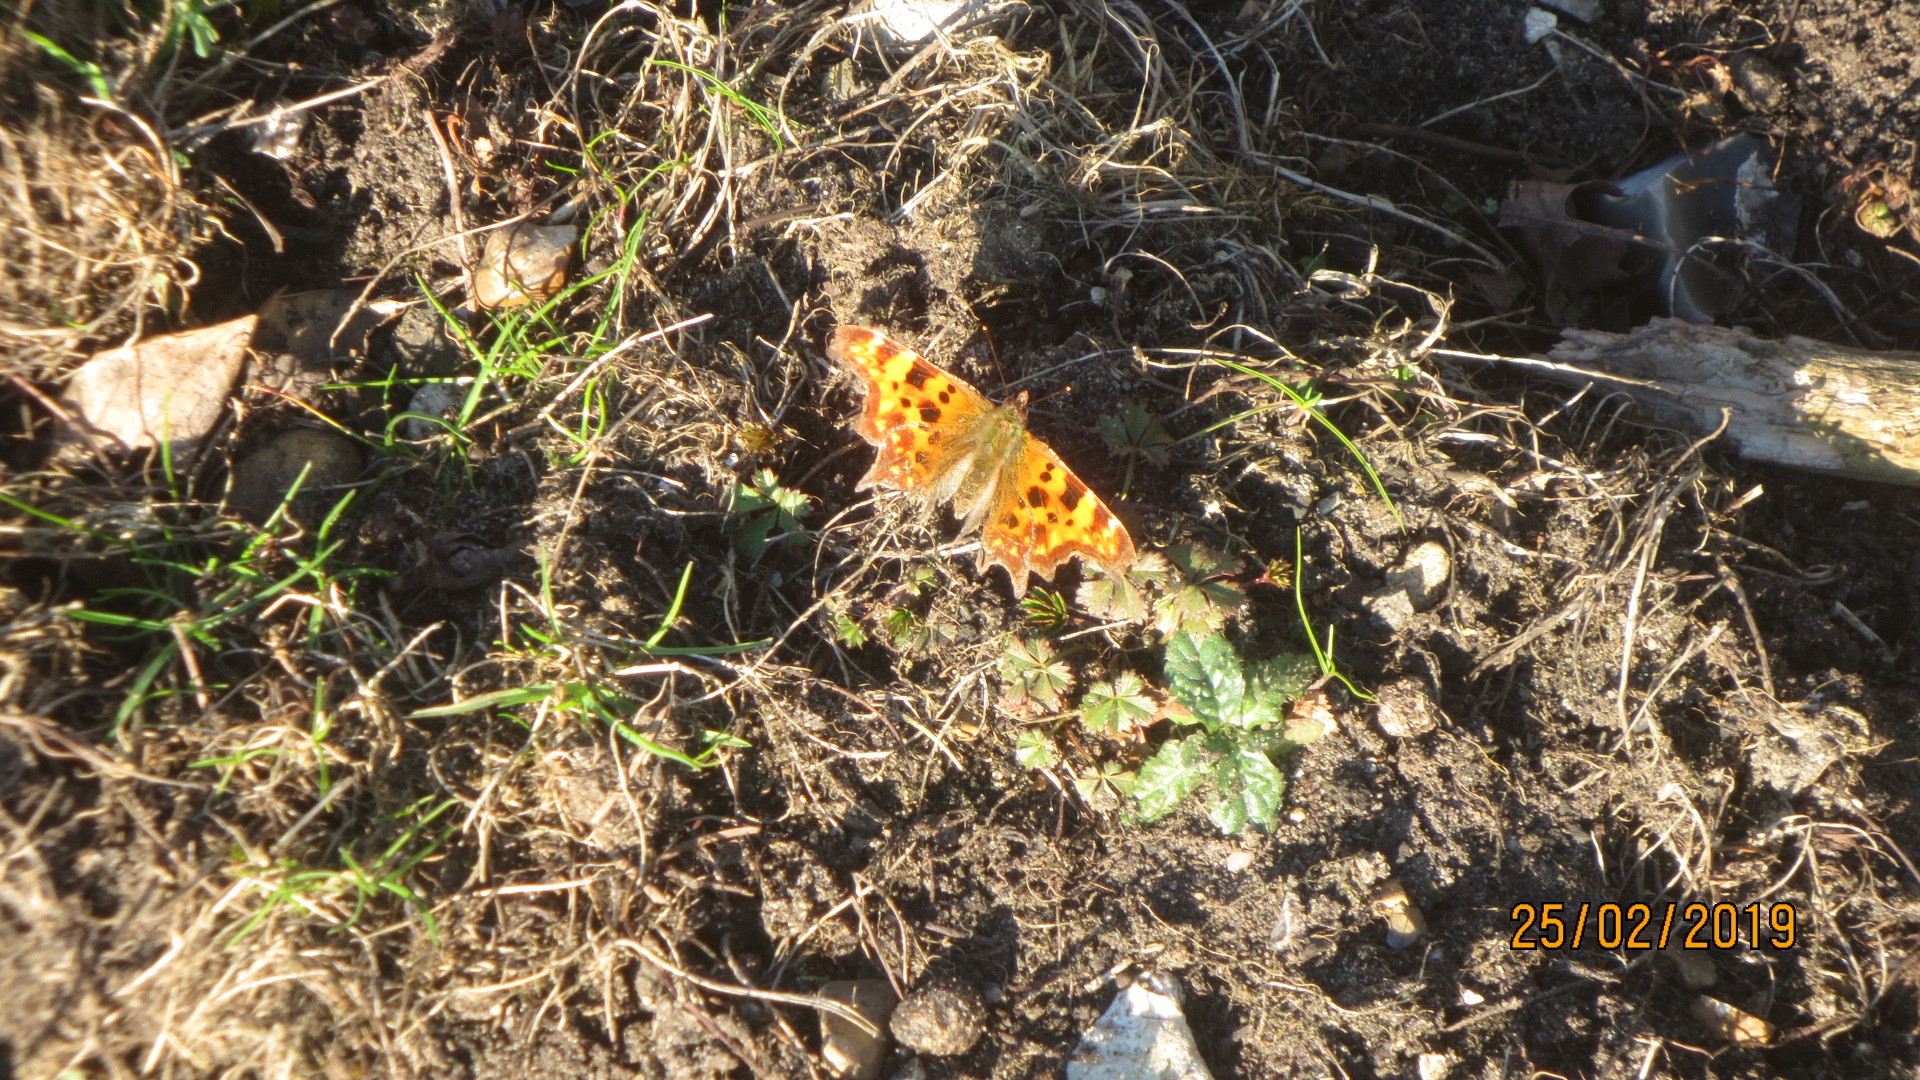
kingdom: Animalia
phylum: Arthropoda
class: Insecta
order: Lepidoptera
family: Nymphalidae
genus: Polygonia
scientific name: Polygonia c-album
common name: Comma
